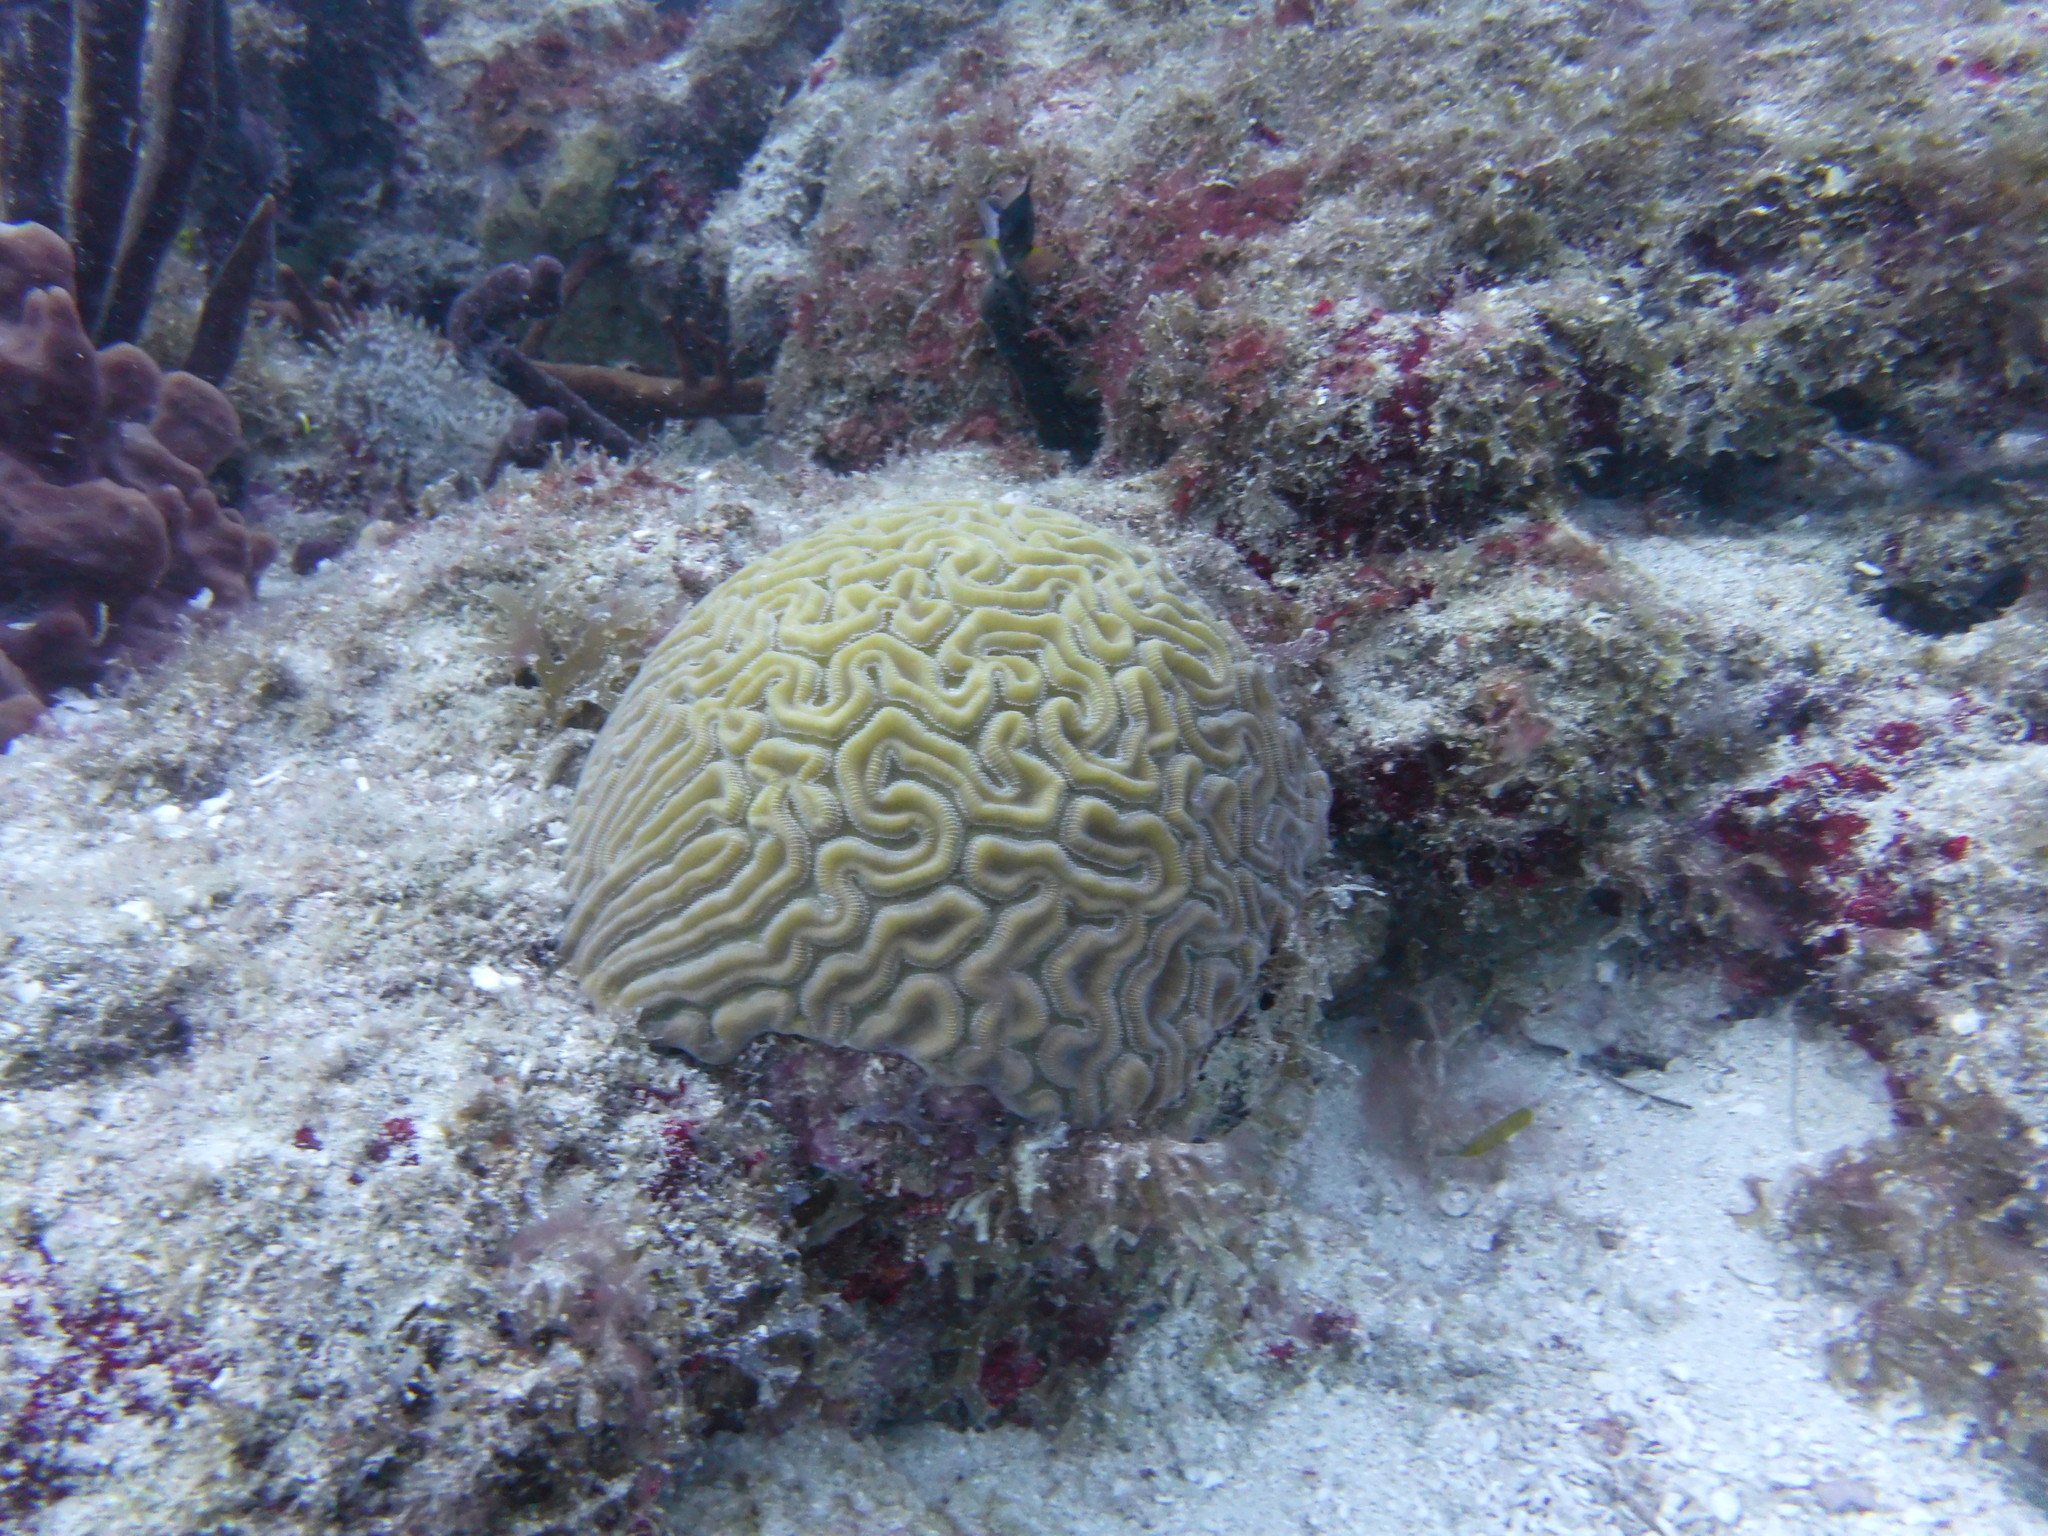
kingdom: Animalia
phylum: Cnidaria
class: Anthozoa
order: Scleractinia
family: Faviidae
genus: Diploria
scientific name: Diploria labyrinthiformis
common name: Grooved brain coral
